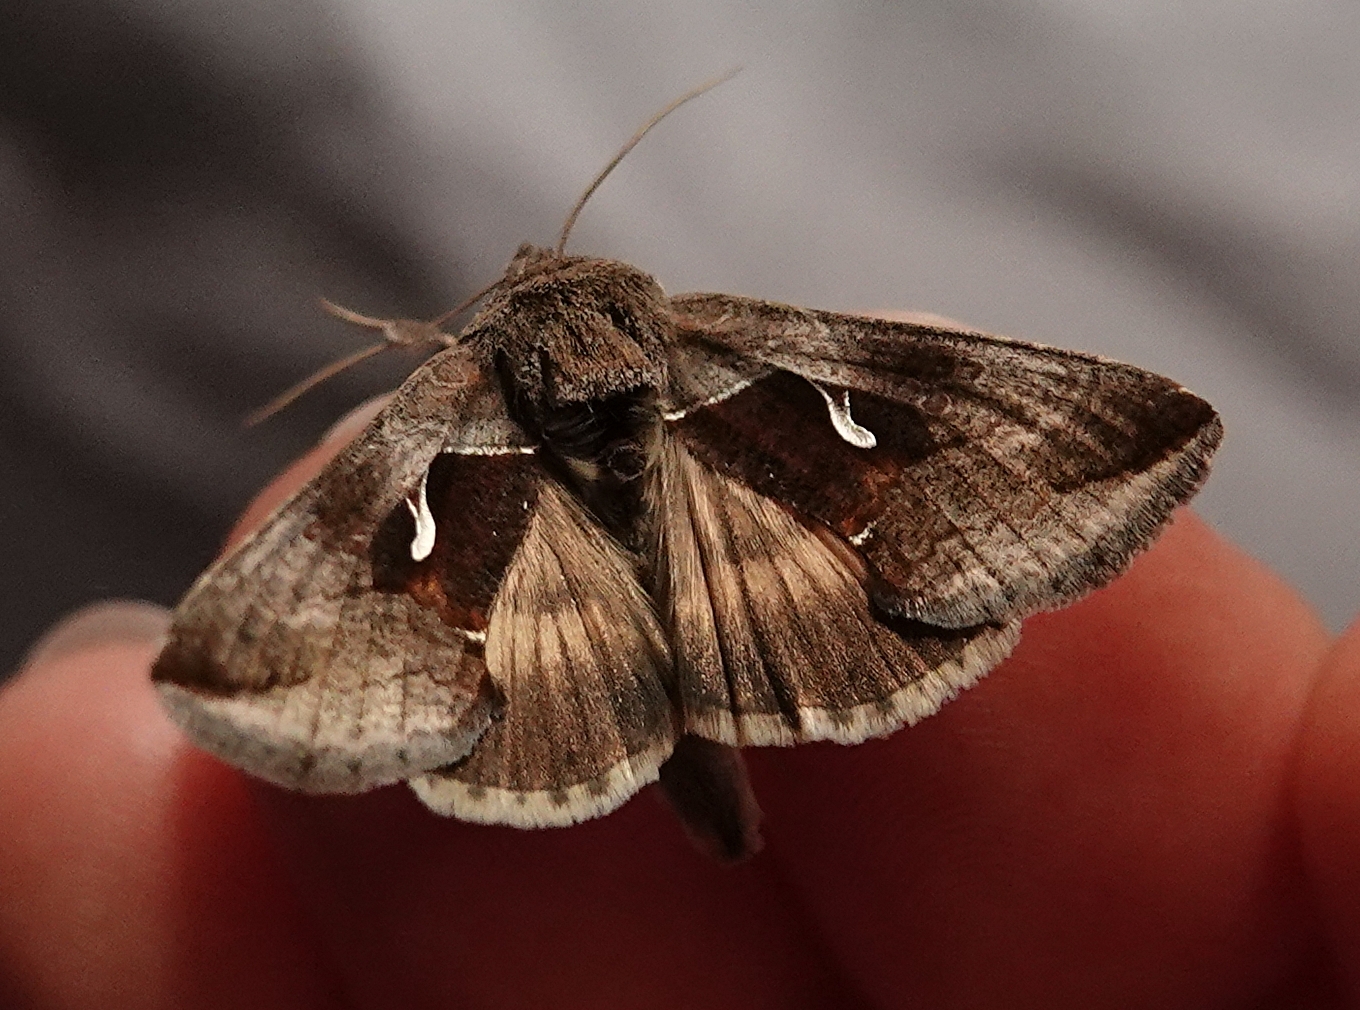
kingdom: Animalia
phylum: Arthropoda
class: Insecta
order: Lepidoptera
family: Noctuidae
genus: Anagrapha
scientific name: Anagrapha falcifera
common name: Celery looper
